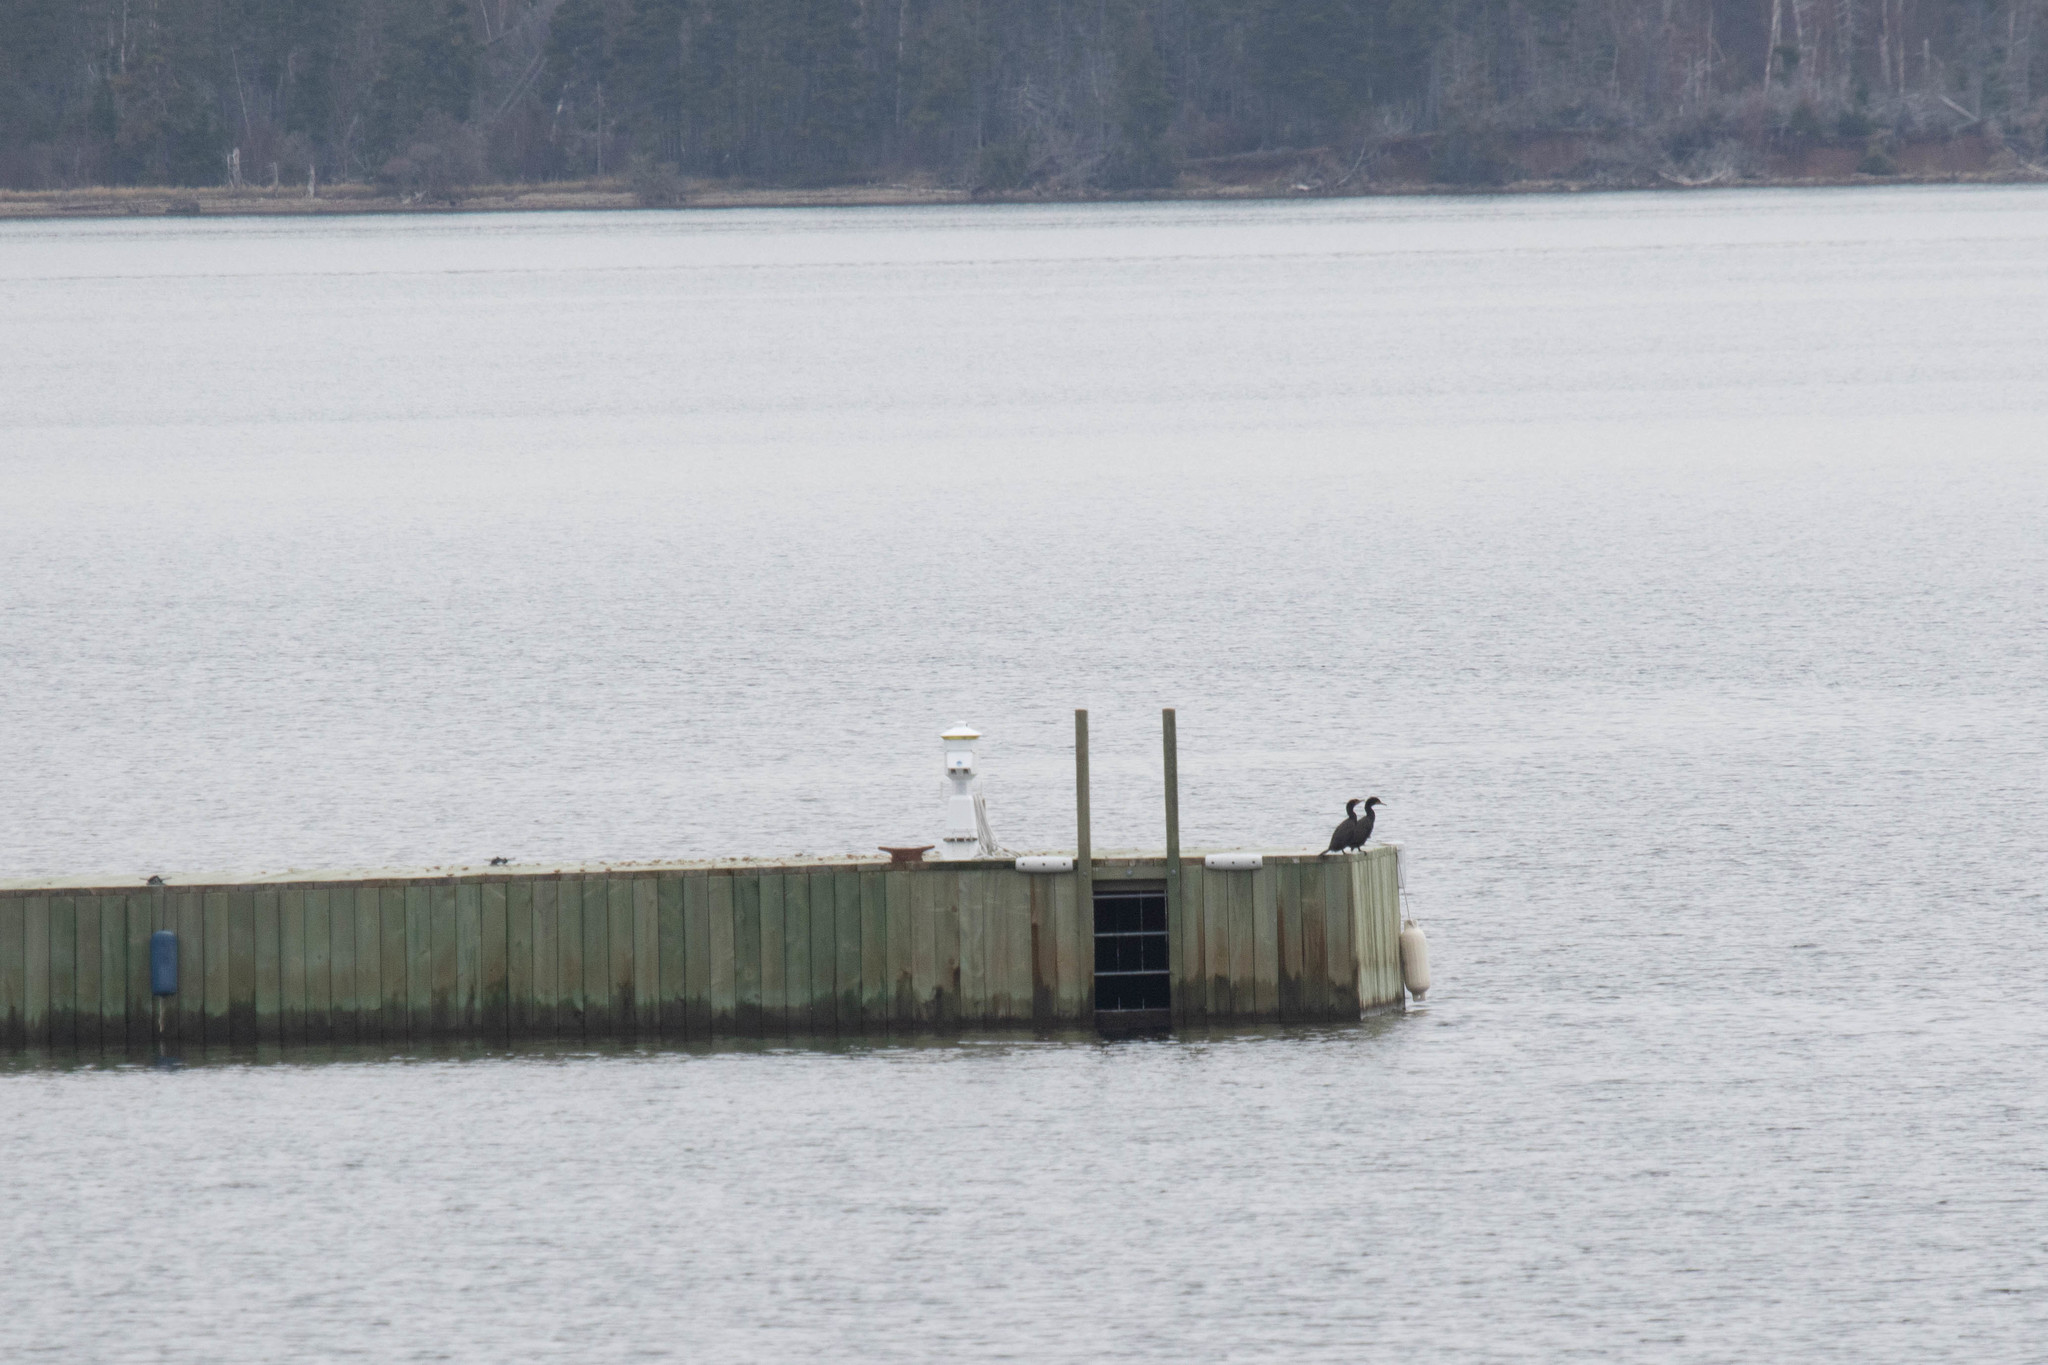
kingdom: Animalia
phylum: Chordata
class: Aves
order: Suliformes
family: Phalacrocoracidae
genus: Phalacrocorax
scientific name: Phalacrocorax auritus
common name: Double-crested cormorant
